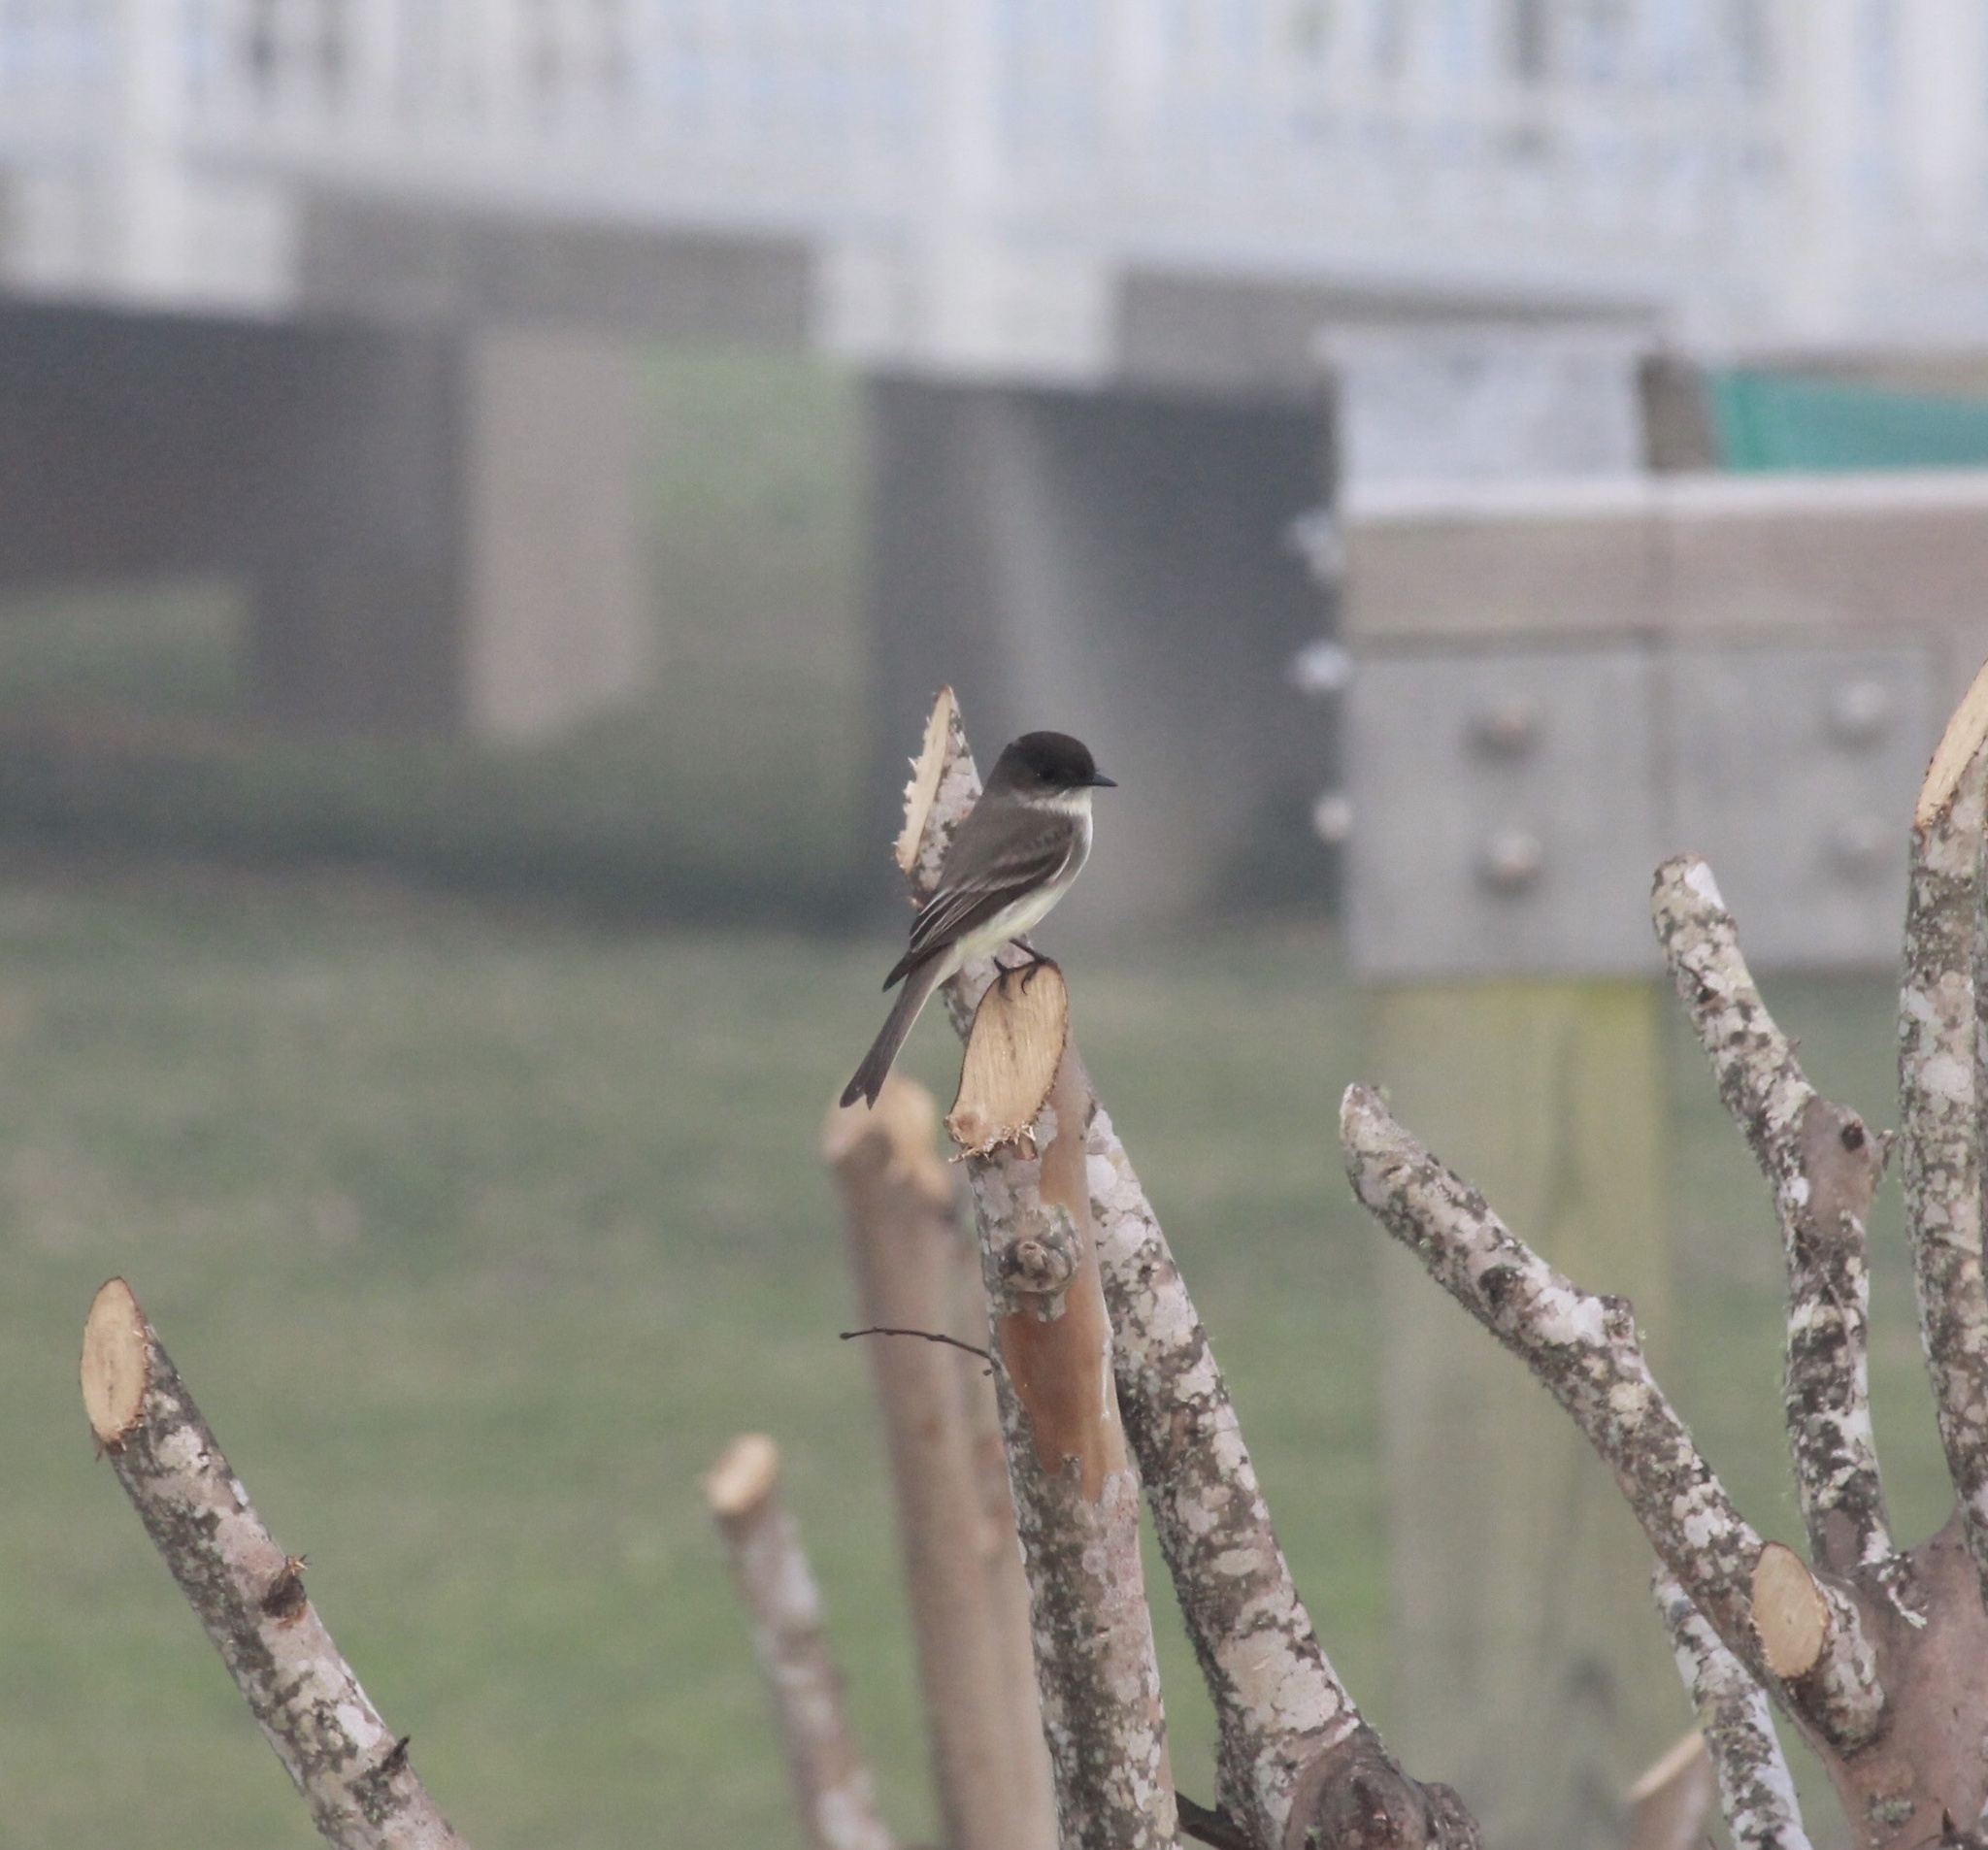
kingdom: Animalia
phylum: Chordata
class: Aves
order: Passeriformes
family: Tyrannidae
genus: Sayornis
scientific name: Sayornis phoebe
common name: Eastern phoebe
